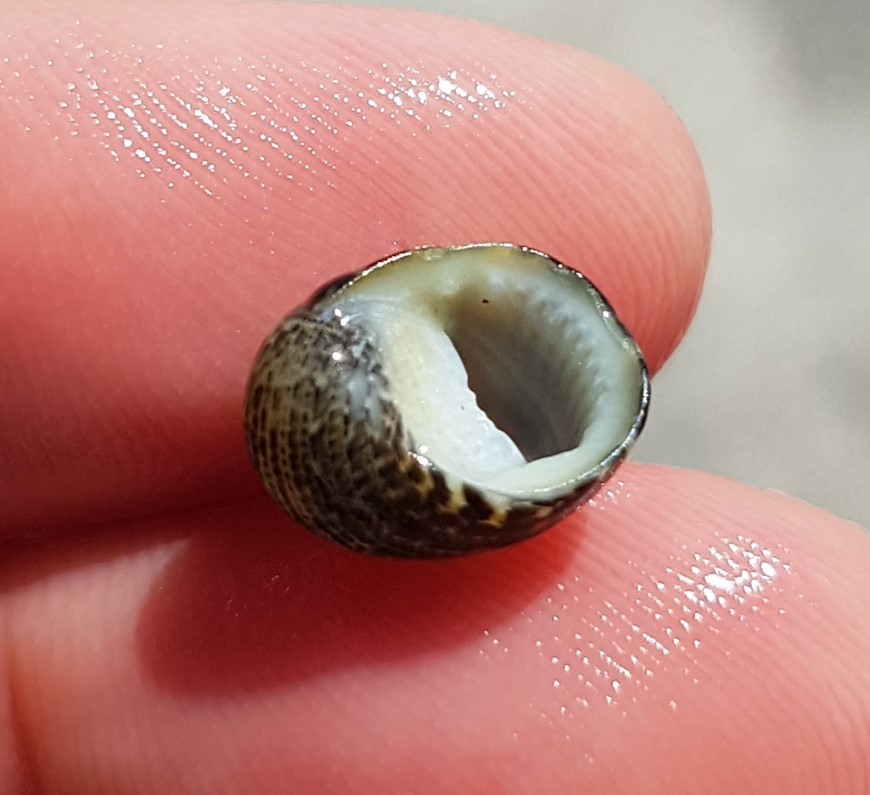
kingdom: Animalia
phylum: Mollusca
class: Gastropoda
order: Cycloneritida
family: Neritidae
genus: Nerita
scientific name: Nerita funiculata
